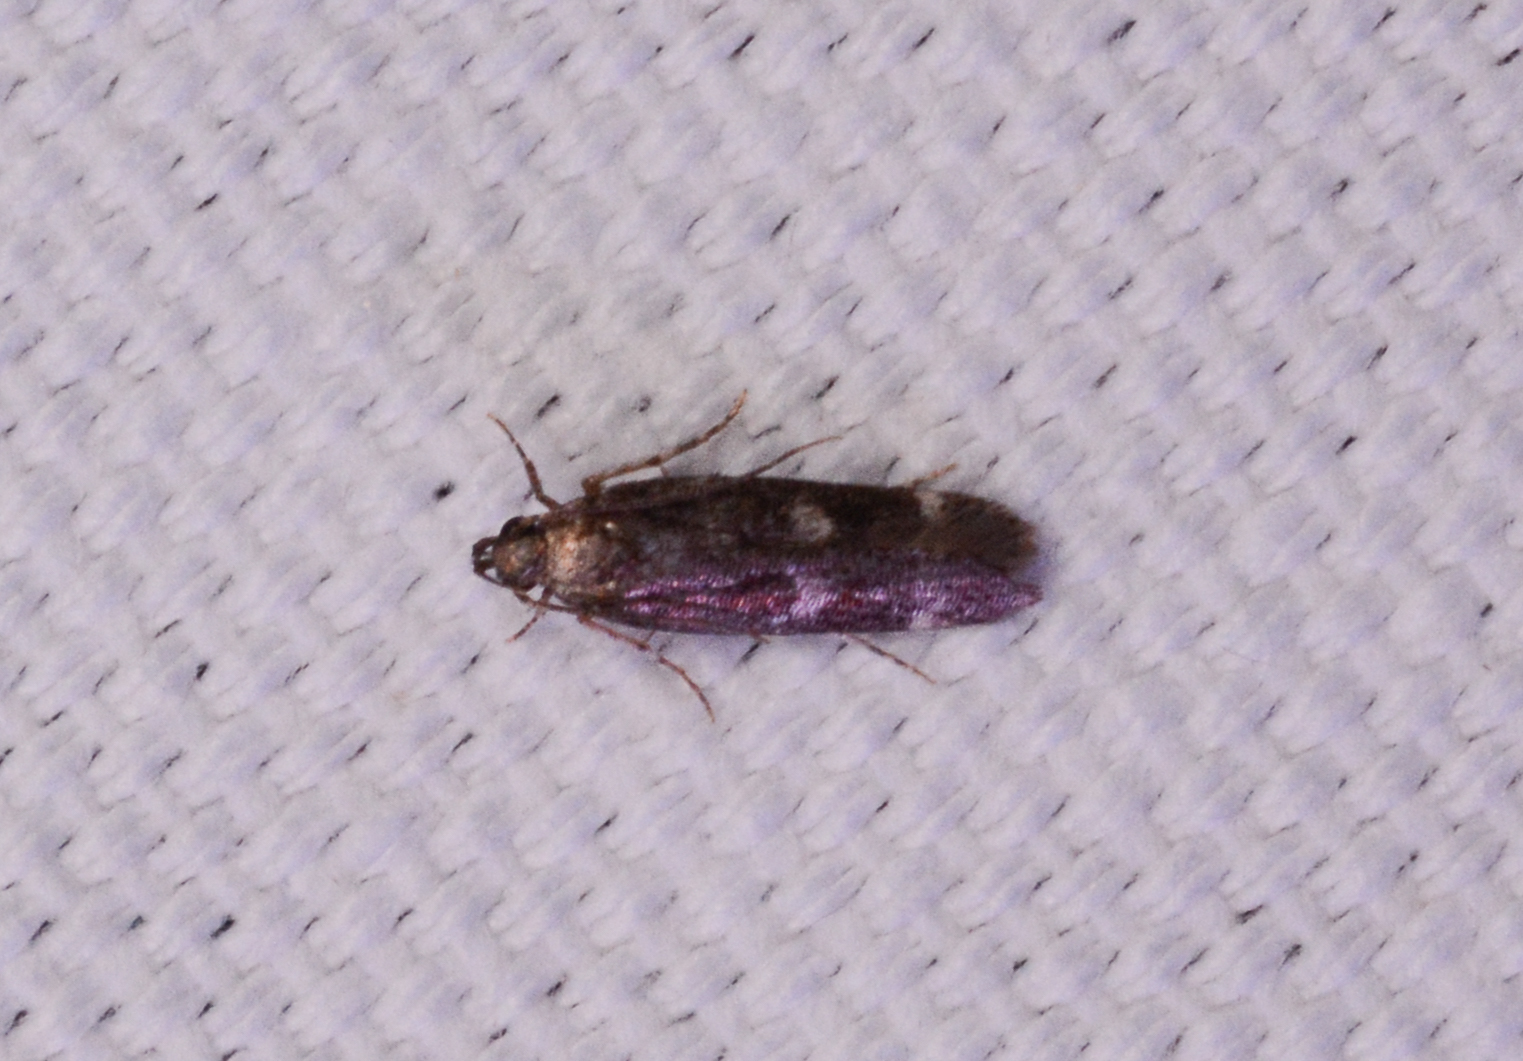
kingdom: Animalia
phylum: Arthropoda
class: Insecta
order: Lepidoptera
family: Gelechiidae
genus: Fascista
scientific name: Fascista bimaculella
